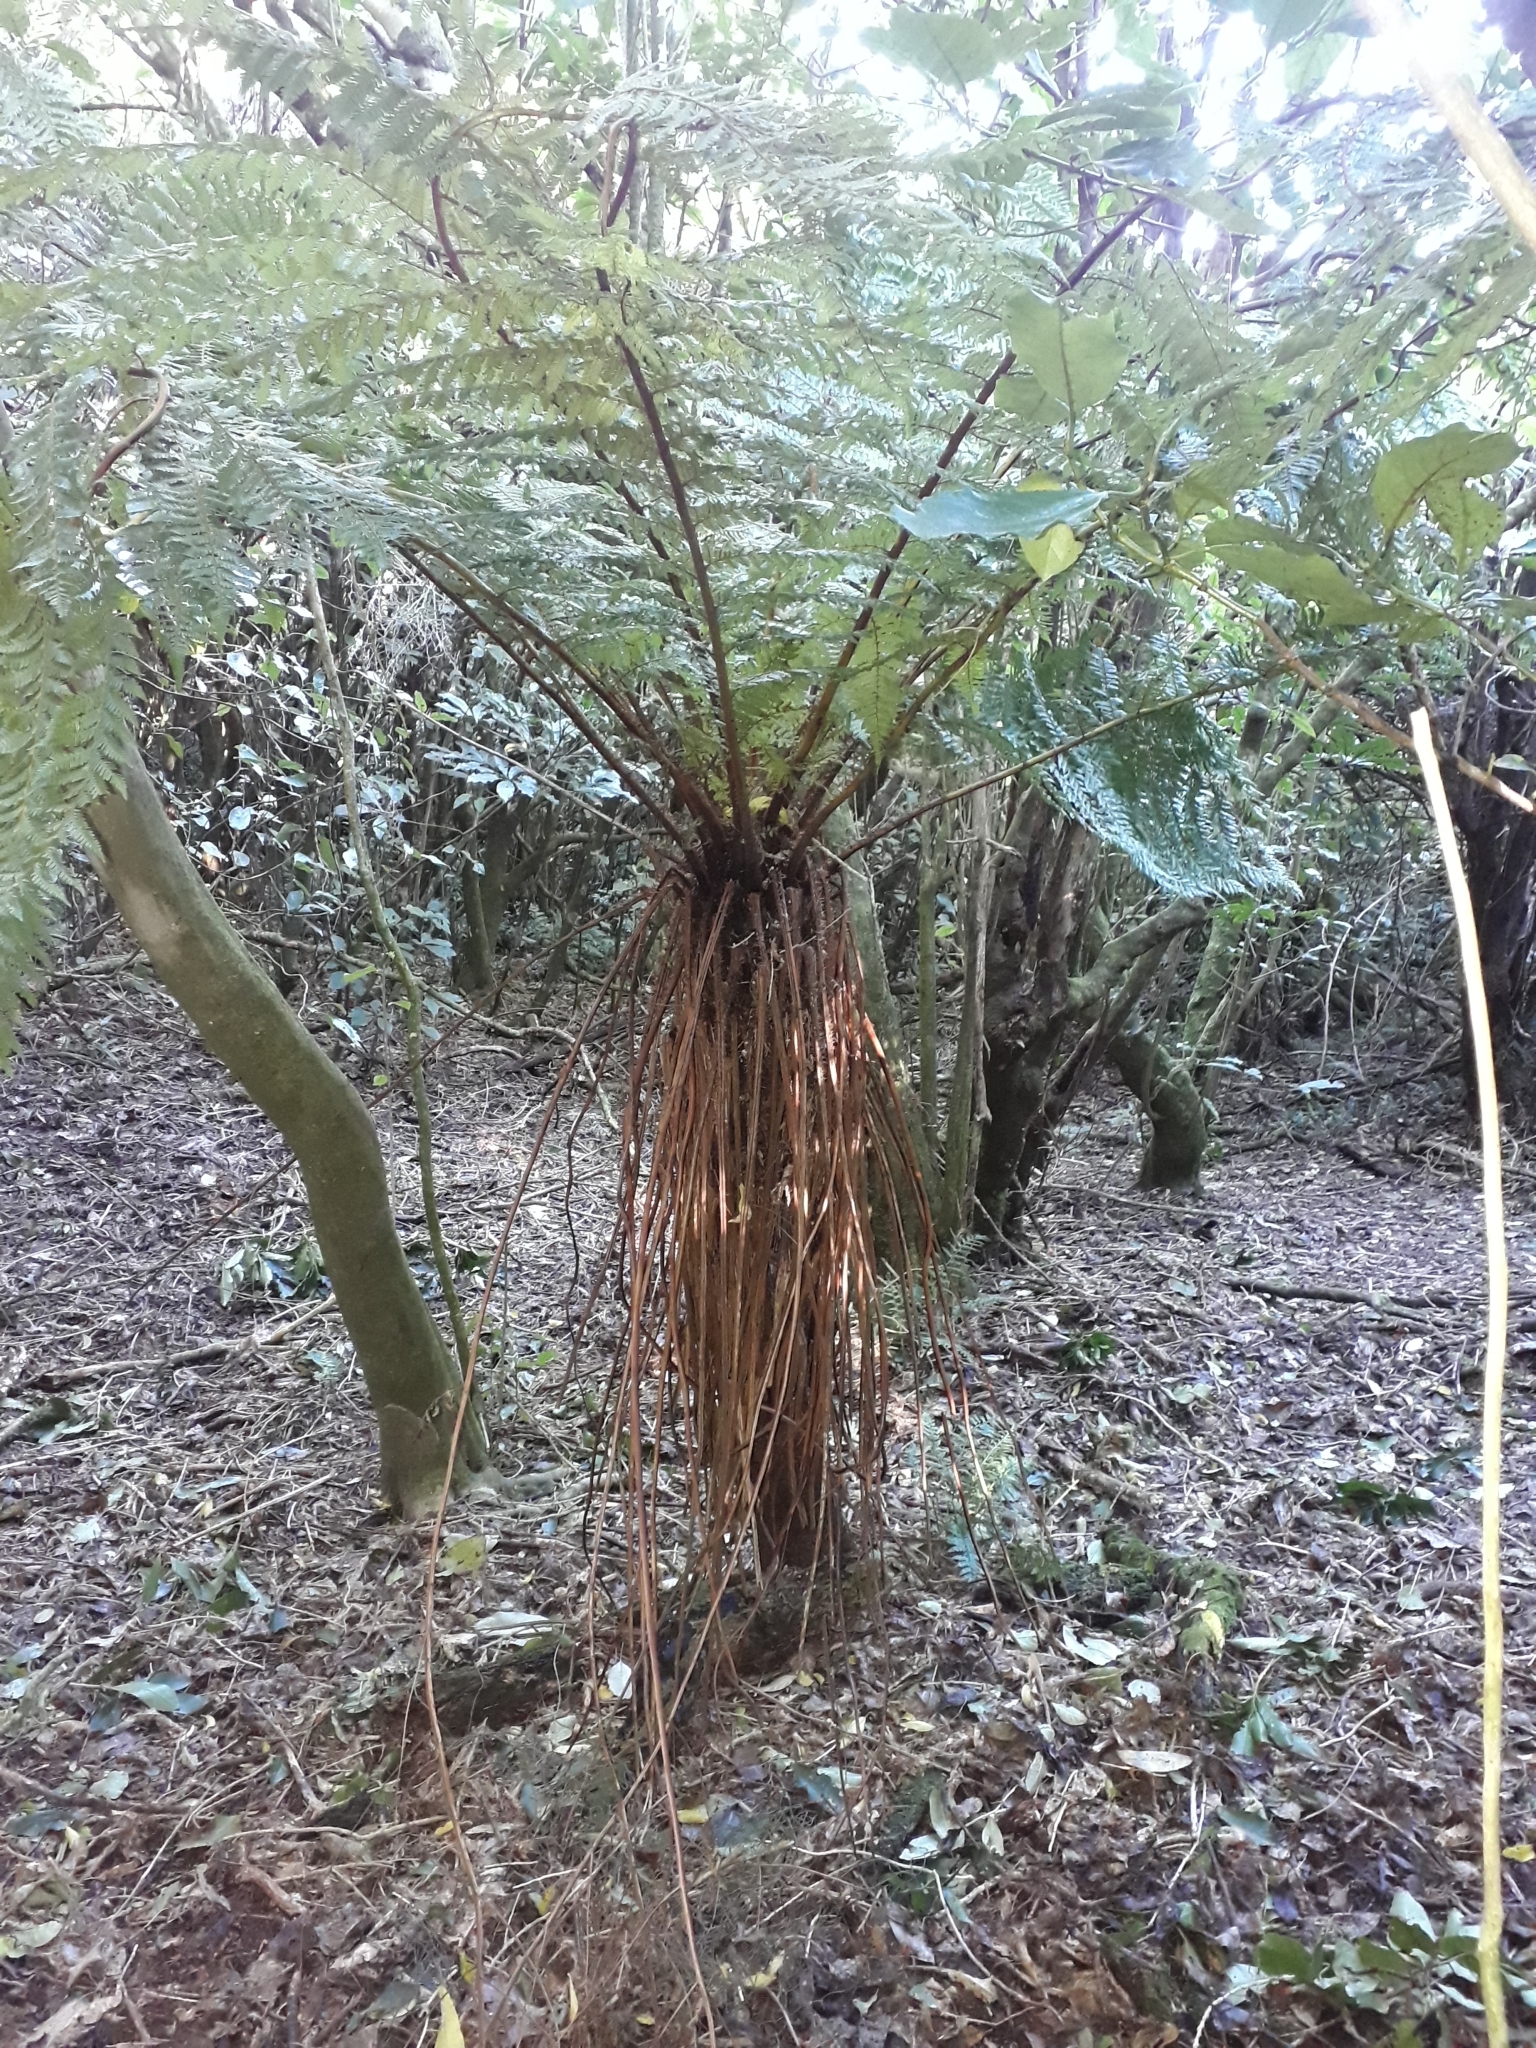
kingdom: Plantae
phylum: Tracheophyta
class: Polypodiopsida
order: Cyatheales
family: Cyatheaceae
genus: Alsophila
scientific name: Alsophila smithii
